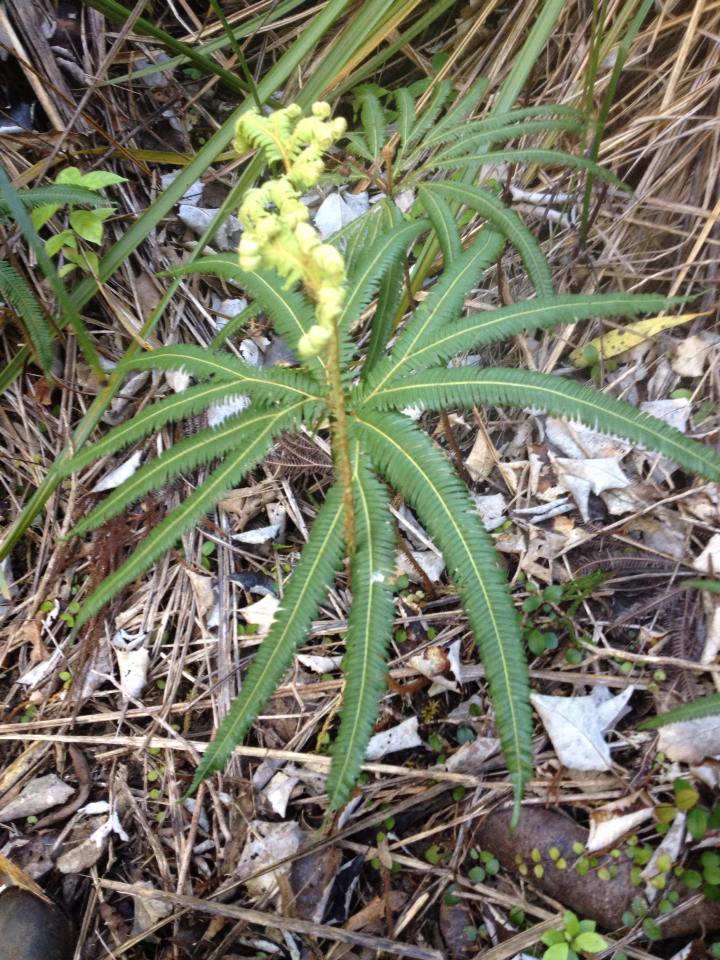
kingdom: Plantae
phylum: Tracheophyta
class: Polypodiopsida
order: Gleicheniales
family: Gleicheniaceae
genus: Sticherus
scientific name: Sticherus cunninghamii
